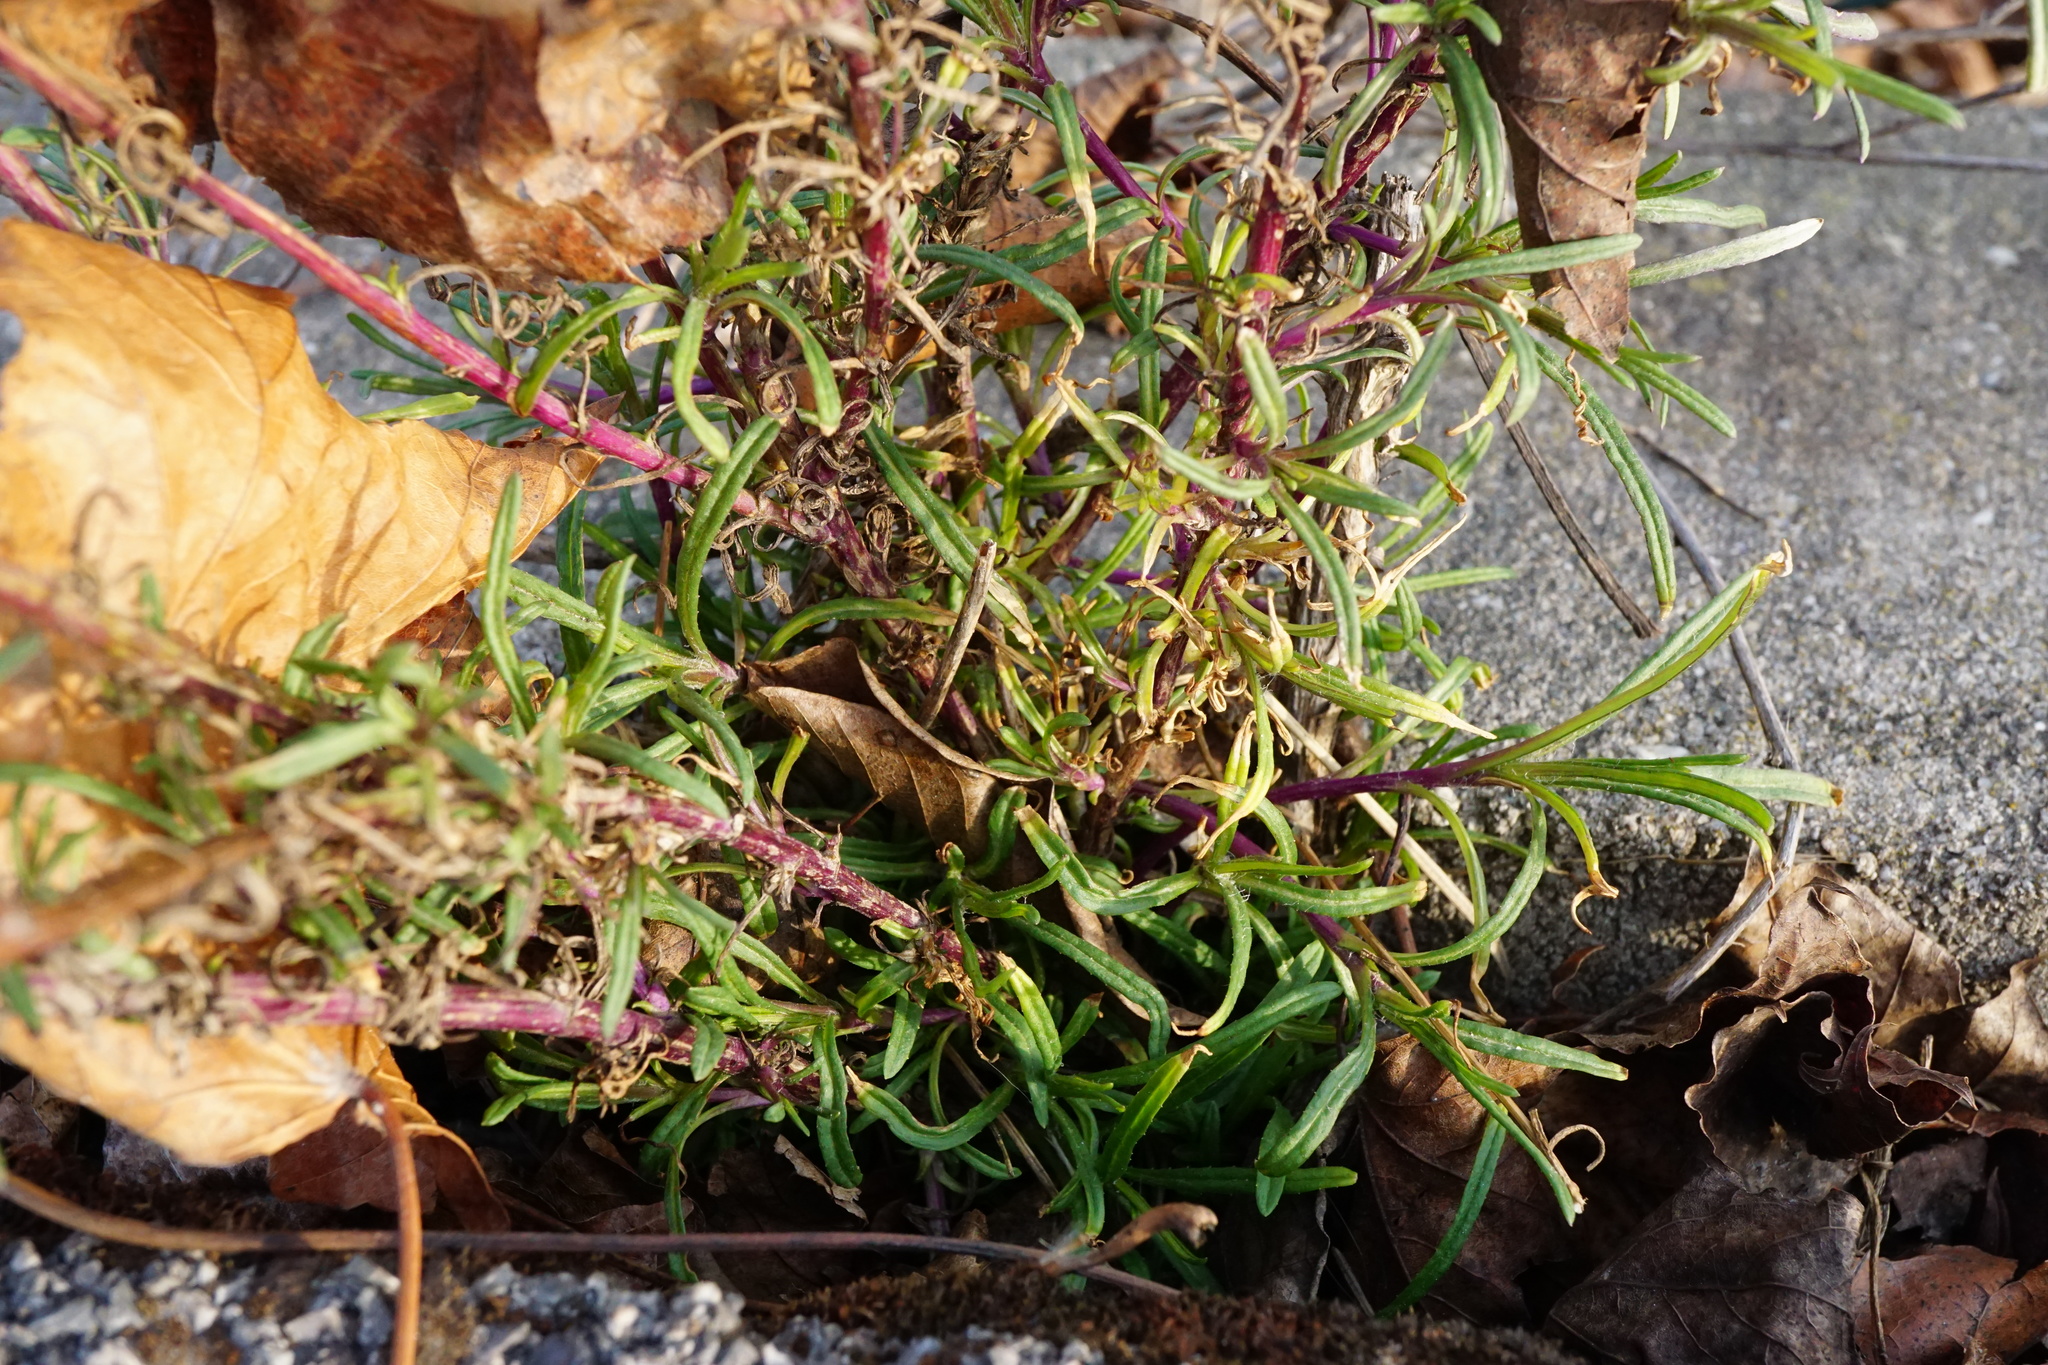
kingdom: Plantae
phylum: Tracheophyta
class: Magnoliopsida
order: Asterales
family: Asteraceae
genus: Senecio
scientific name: Senecio inaequidens
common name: Narrow-leaved ragwort
